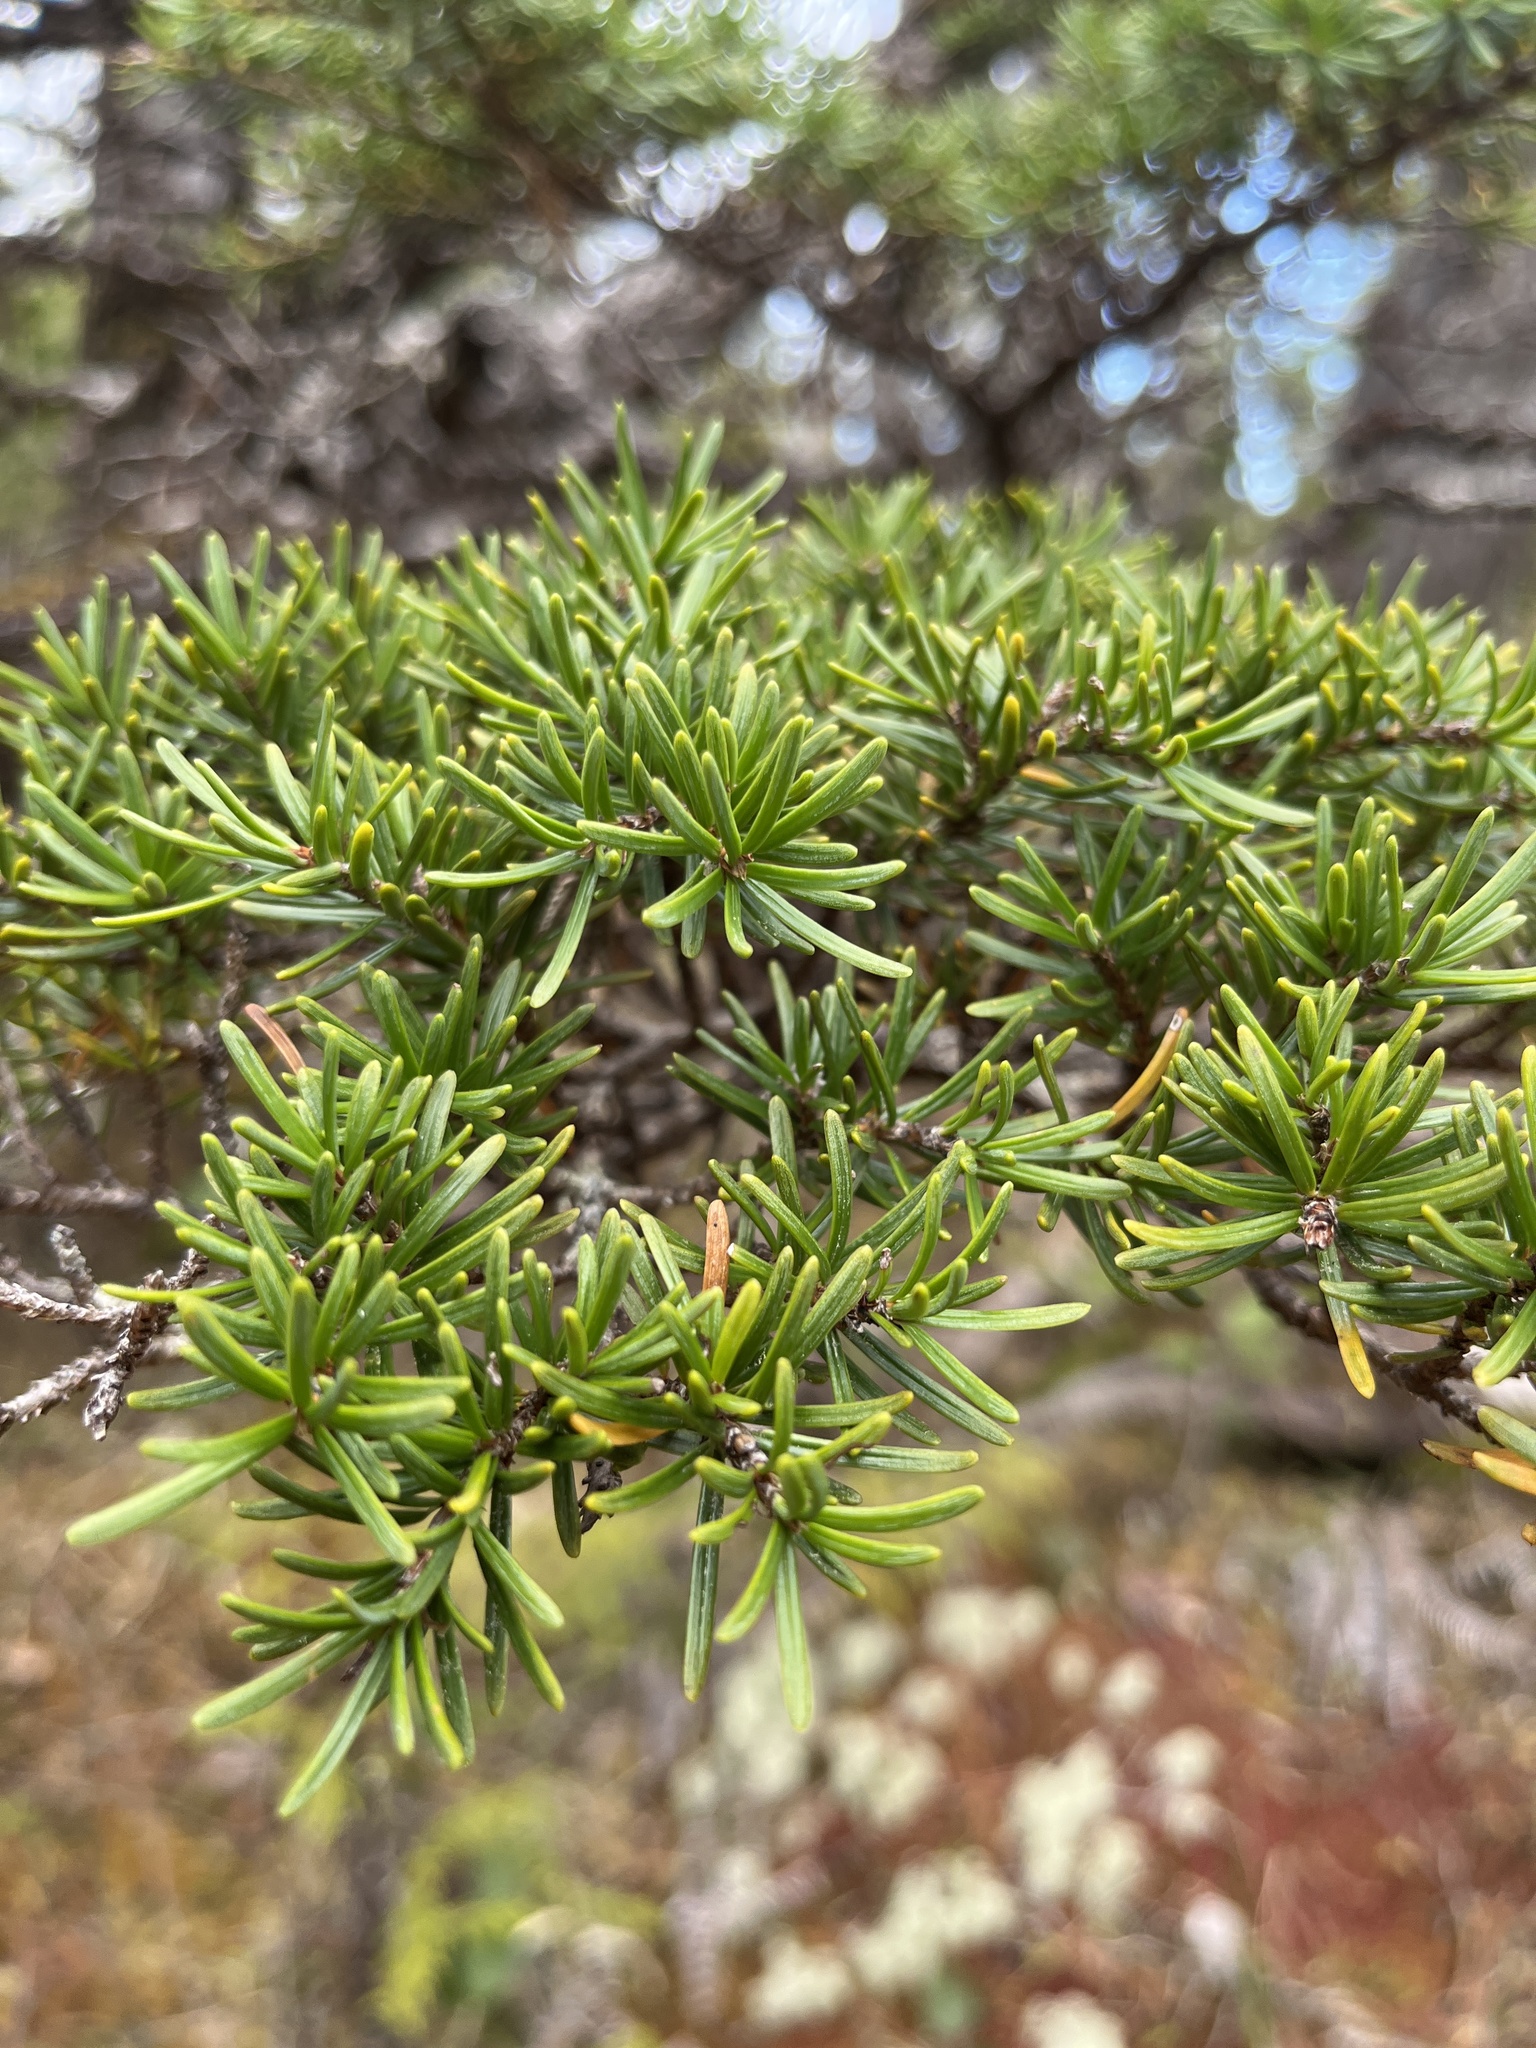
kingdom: Plantae
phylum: Tracheophyta
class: Pinopsida
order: Pinales
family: Pinaceae
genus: Tsuga
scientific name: Tsuga mertensiana
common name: Mountain hemlock
